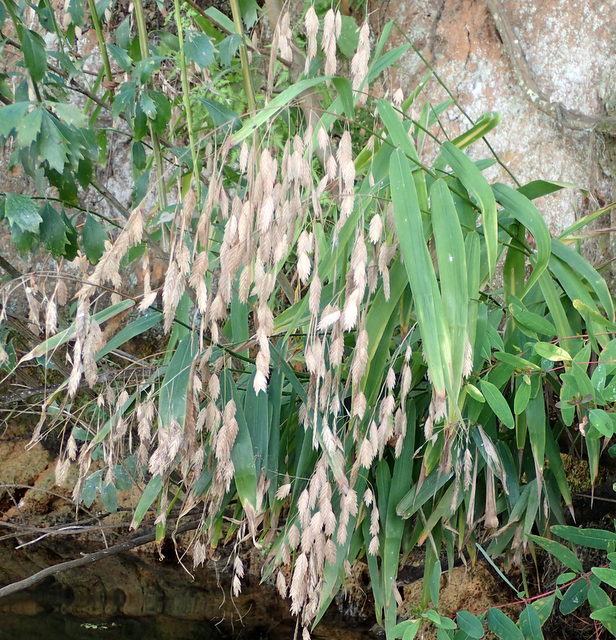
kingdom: Plantae
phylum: Tracheophyta
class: Liliopsida
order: Poales
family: Poaceae
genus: Chasmanthium
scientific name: Chasmanthium latifolium
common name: Broad-leaved chasmanthium
